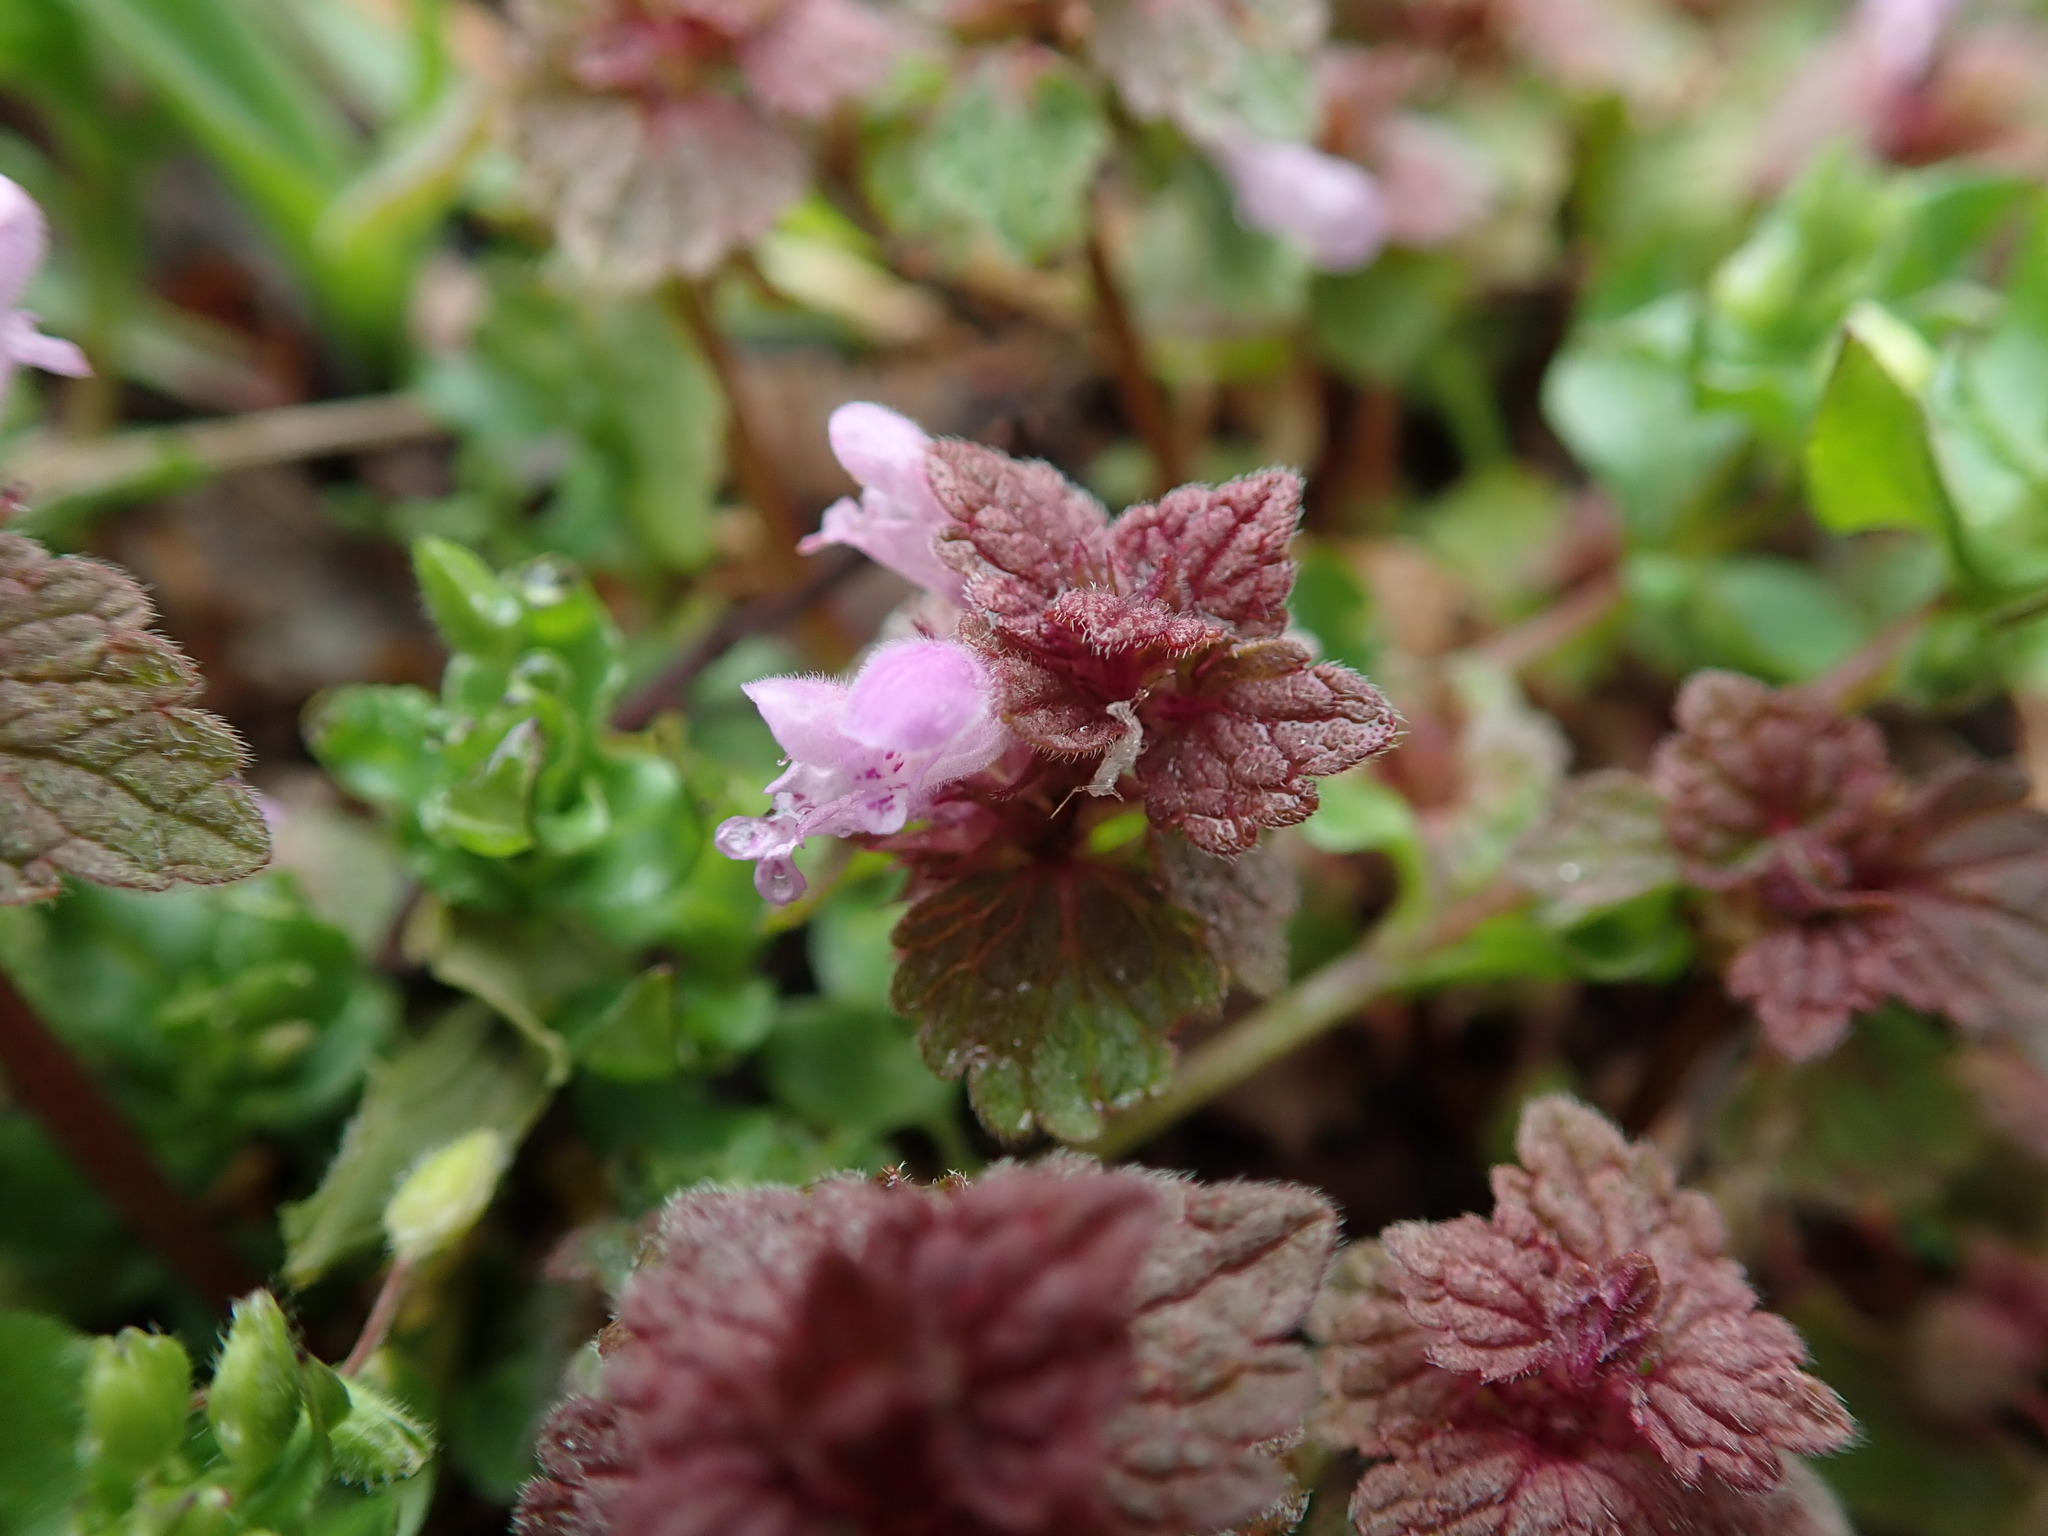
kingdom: Plantae
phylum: Tracheophyta
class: Magnoliopsida
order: Lamiales
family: Lamiaceae
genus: Lamium
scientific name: Lamium purpureum
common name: Red dead-nettle
